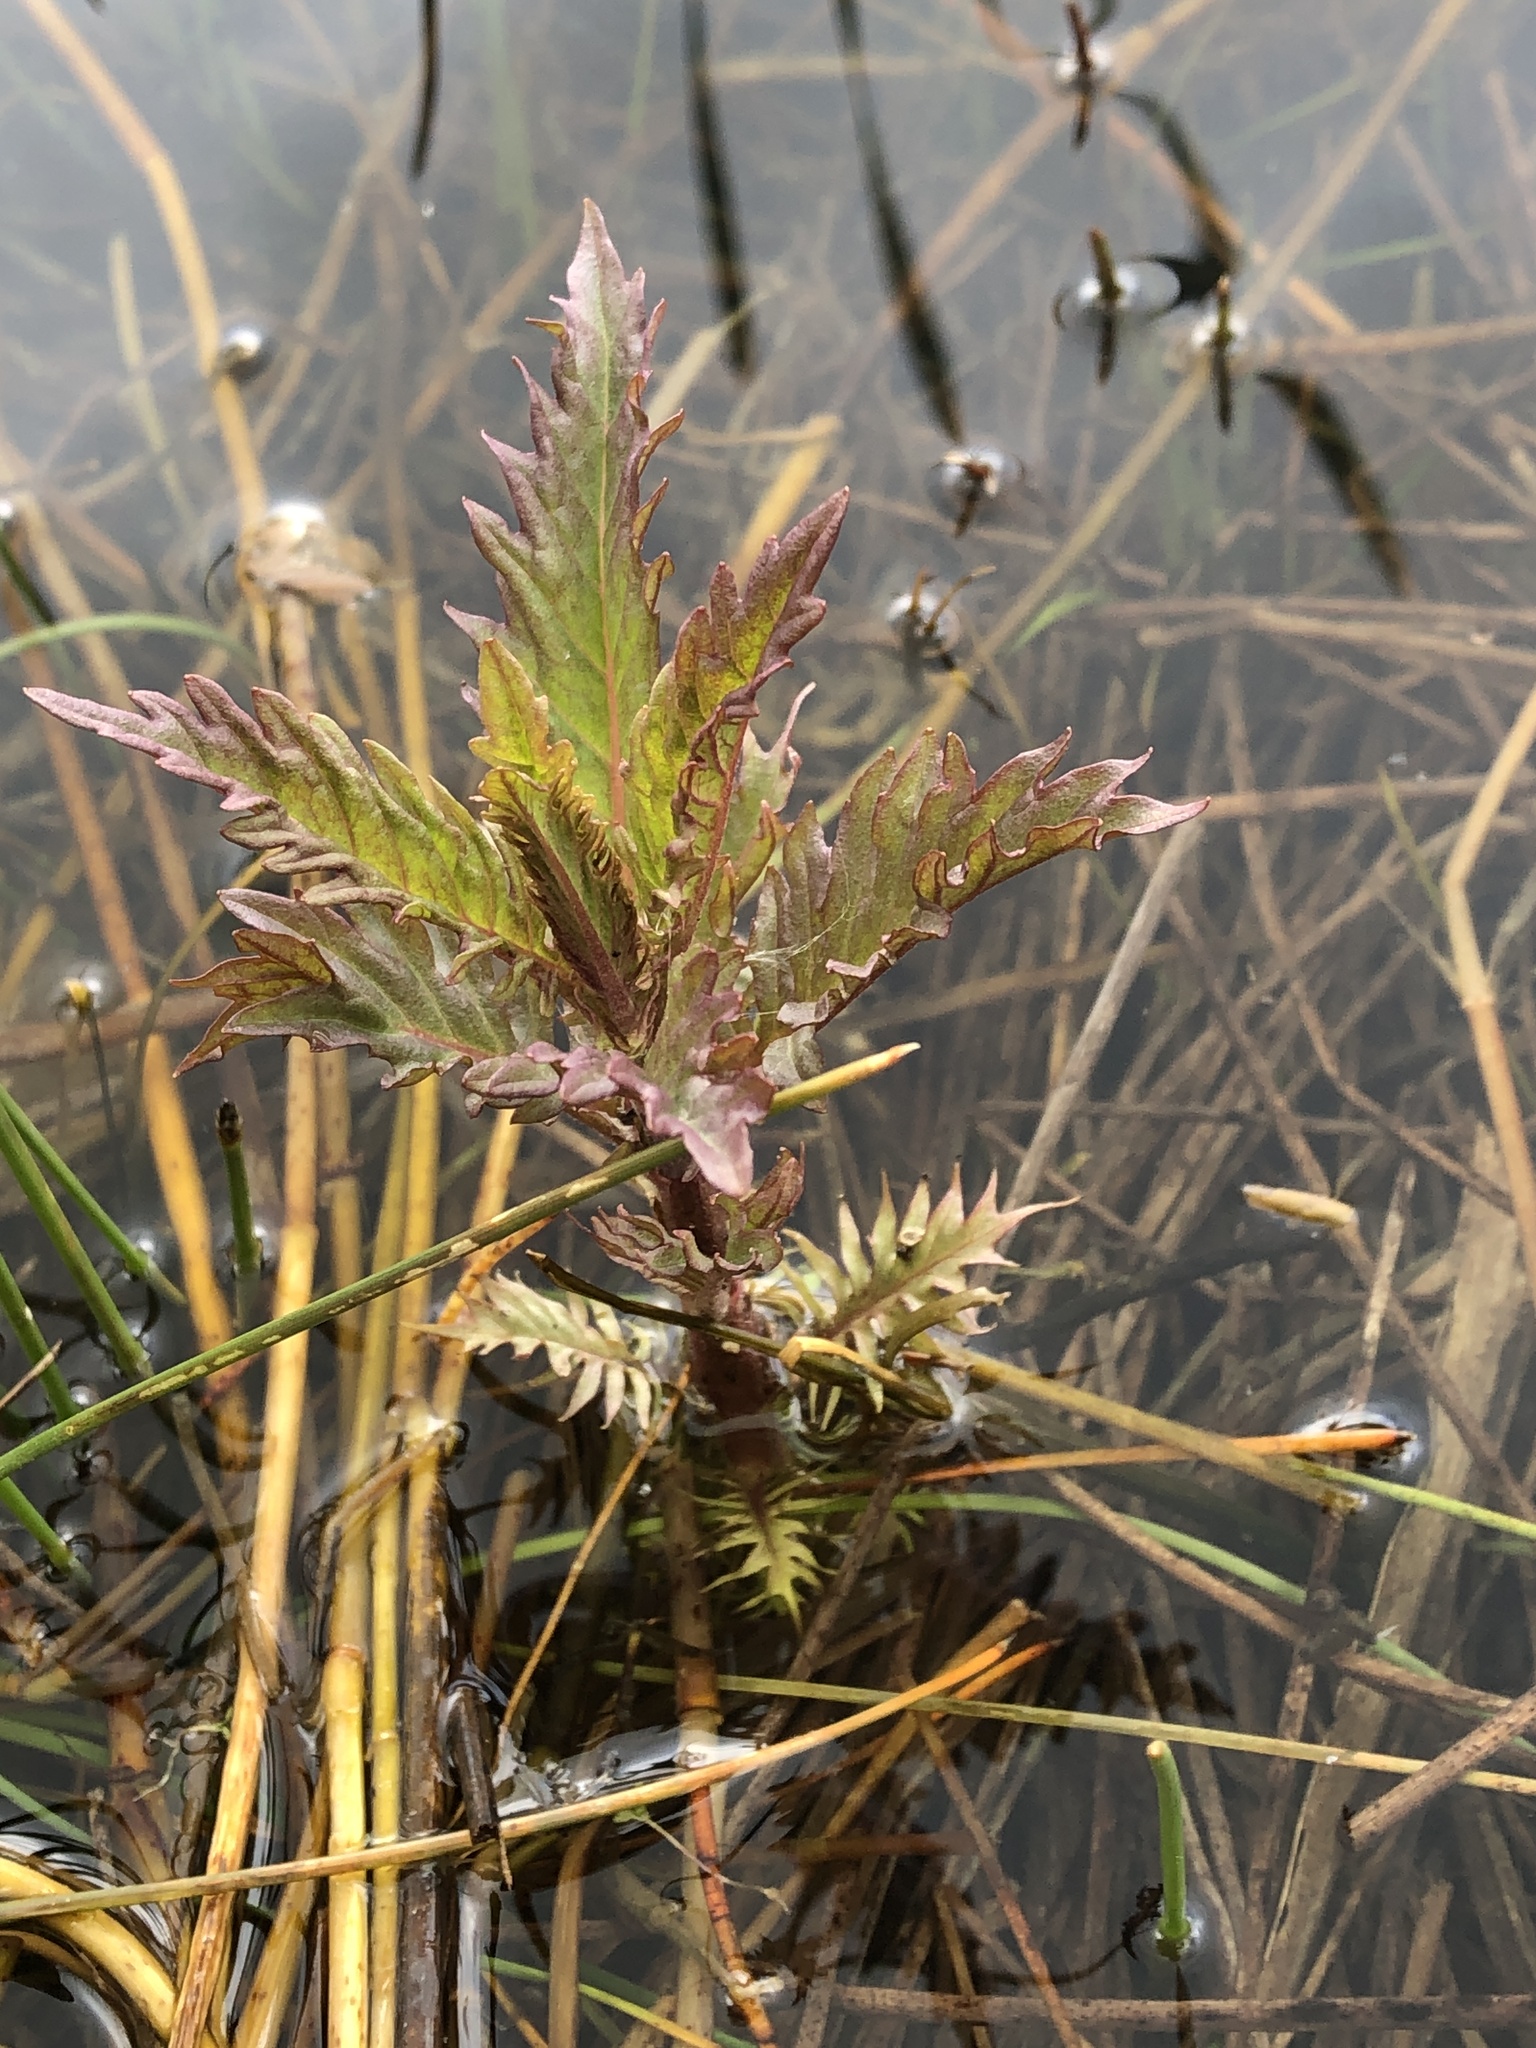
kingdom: Plantae
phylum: Tracheophyta
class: Magnoliopsida
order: Lamiales
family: Lamiaceae
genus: Lycopus
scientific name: Lycopus europaeus
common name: European bugleweed
